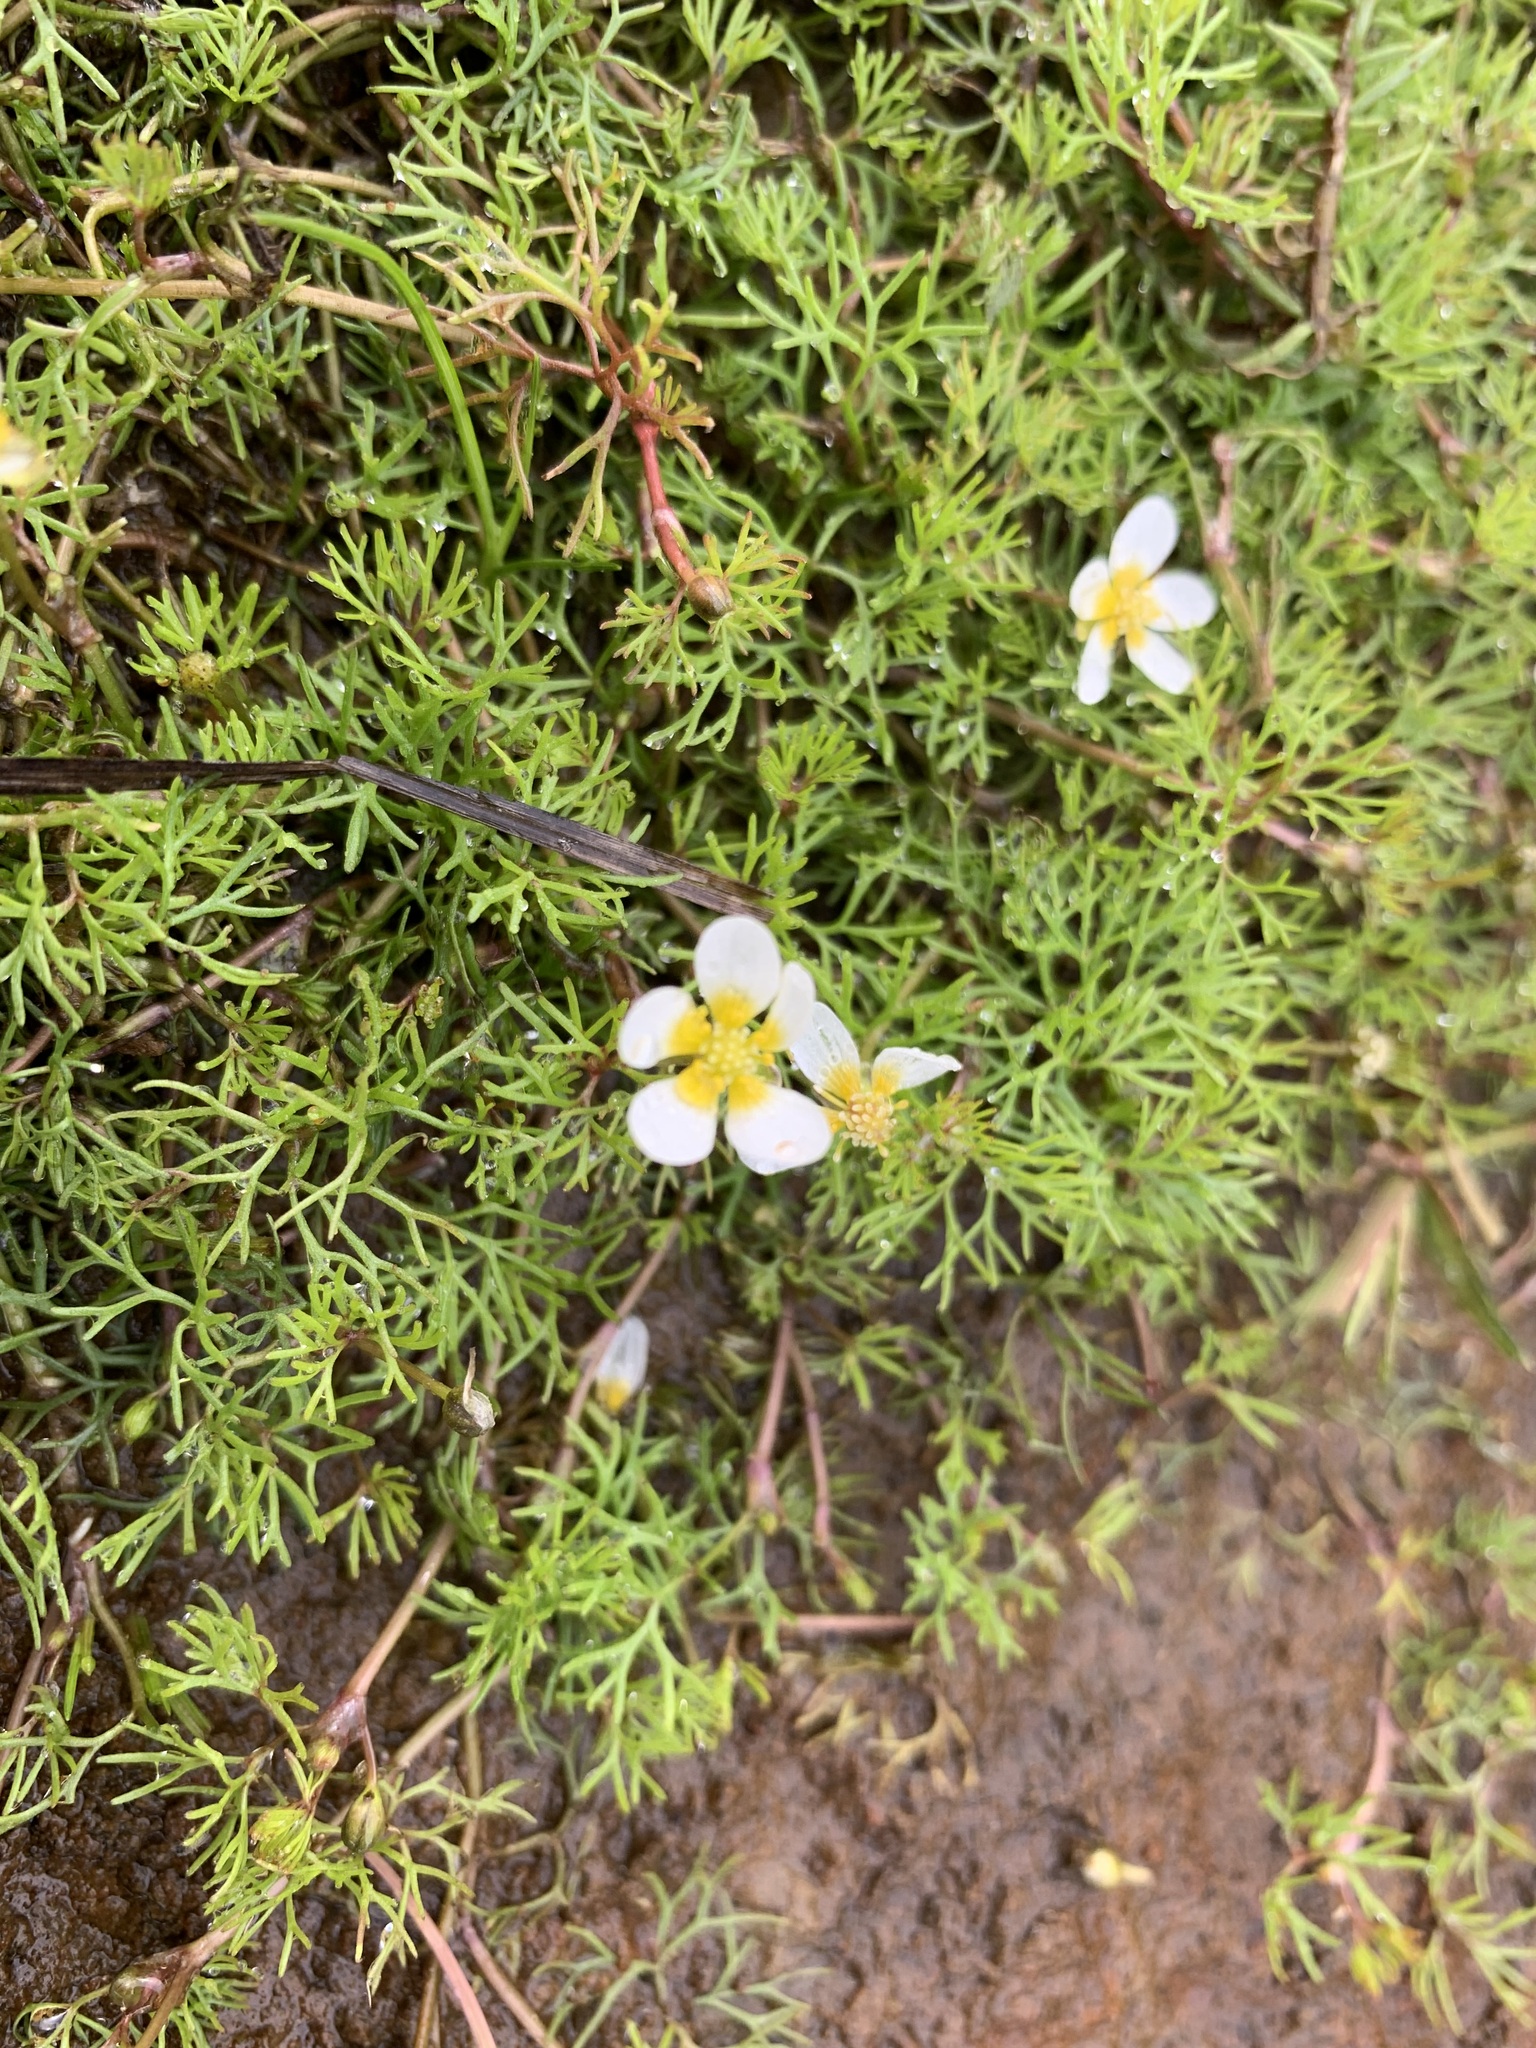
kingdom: Plantae
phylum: Tracheophyta
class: Magnoliopsida
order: Ranunculales
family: Ranunculaceae
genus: Ranunculus
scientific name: Ranunculus confervoides
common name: Delicate buttercup
